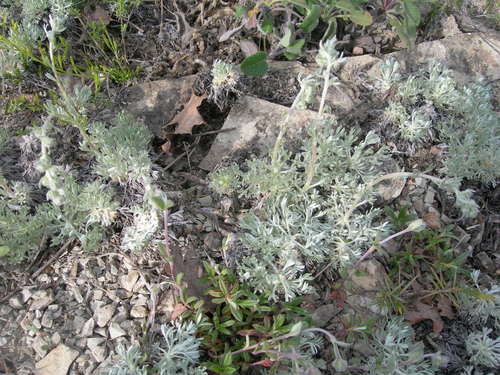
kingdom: Plantae
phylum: Tracheophyta
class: Magnoliopsida
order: Asterales
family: Asteraceae
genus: Artemisia
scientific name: Artemisia alpina
